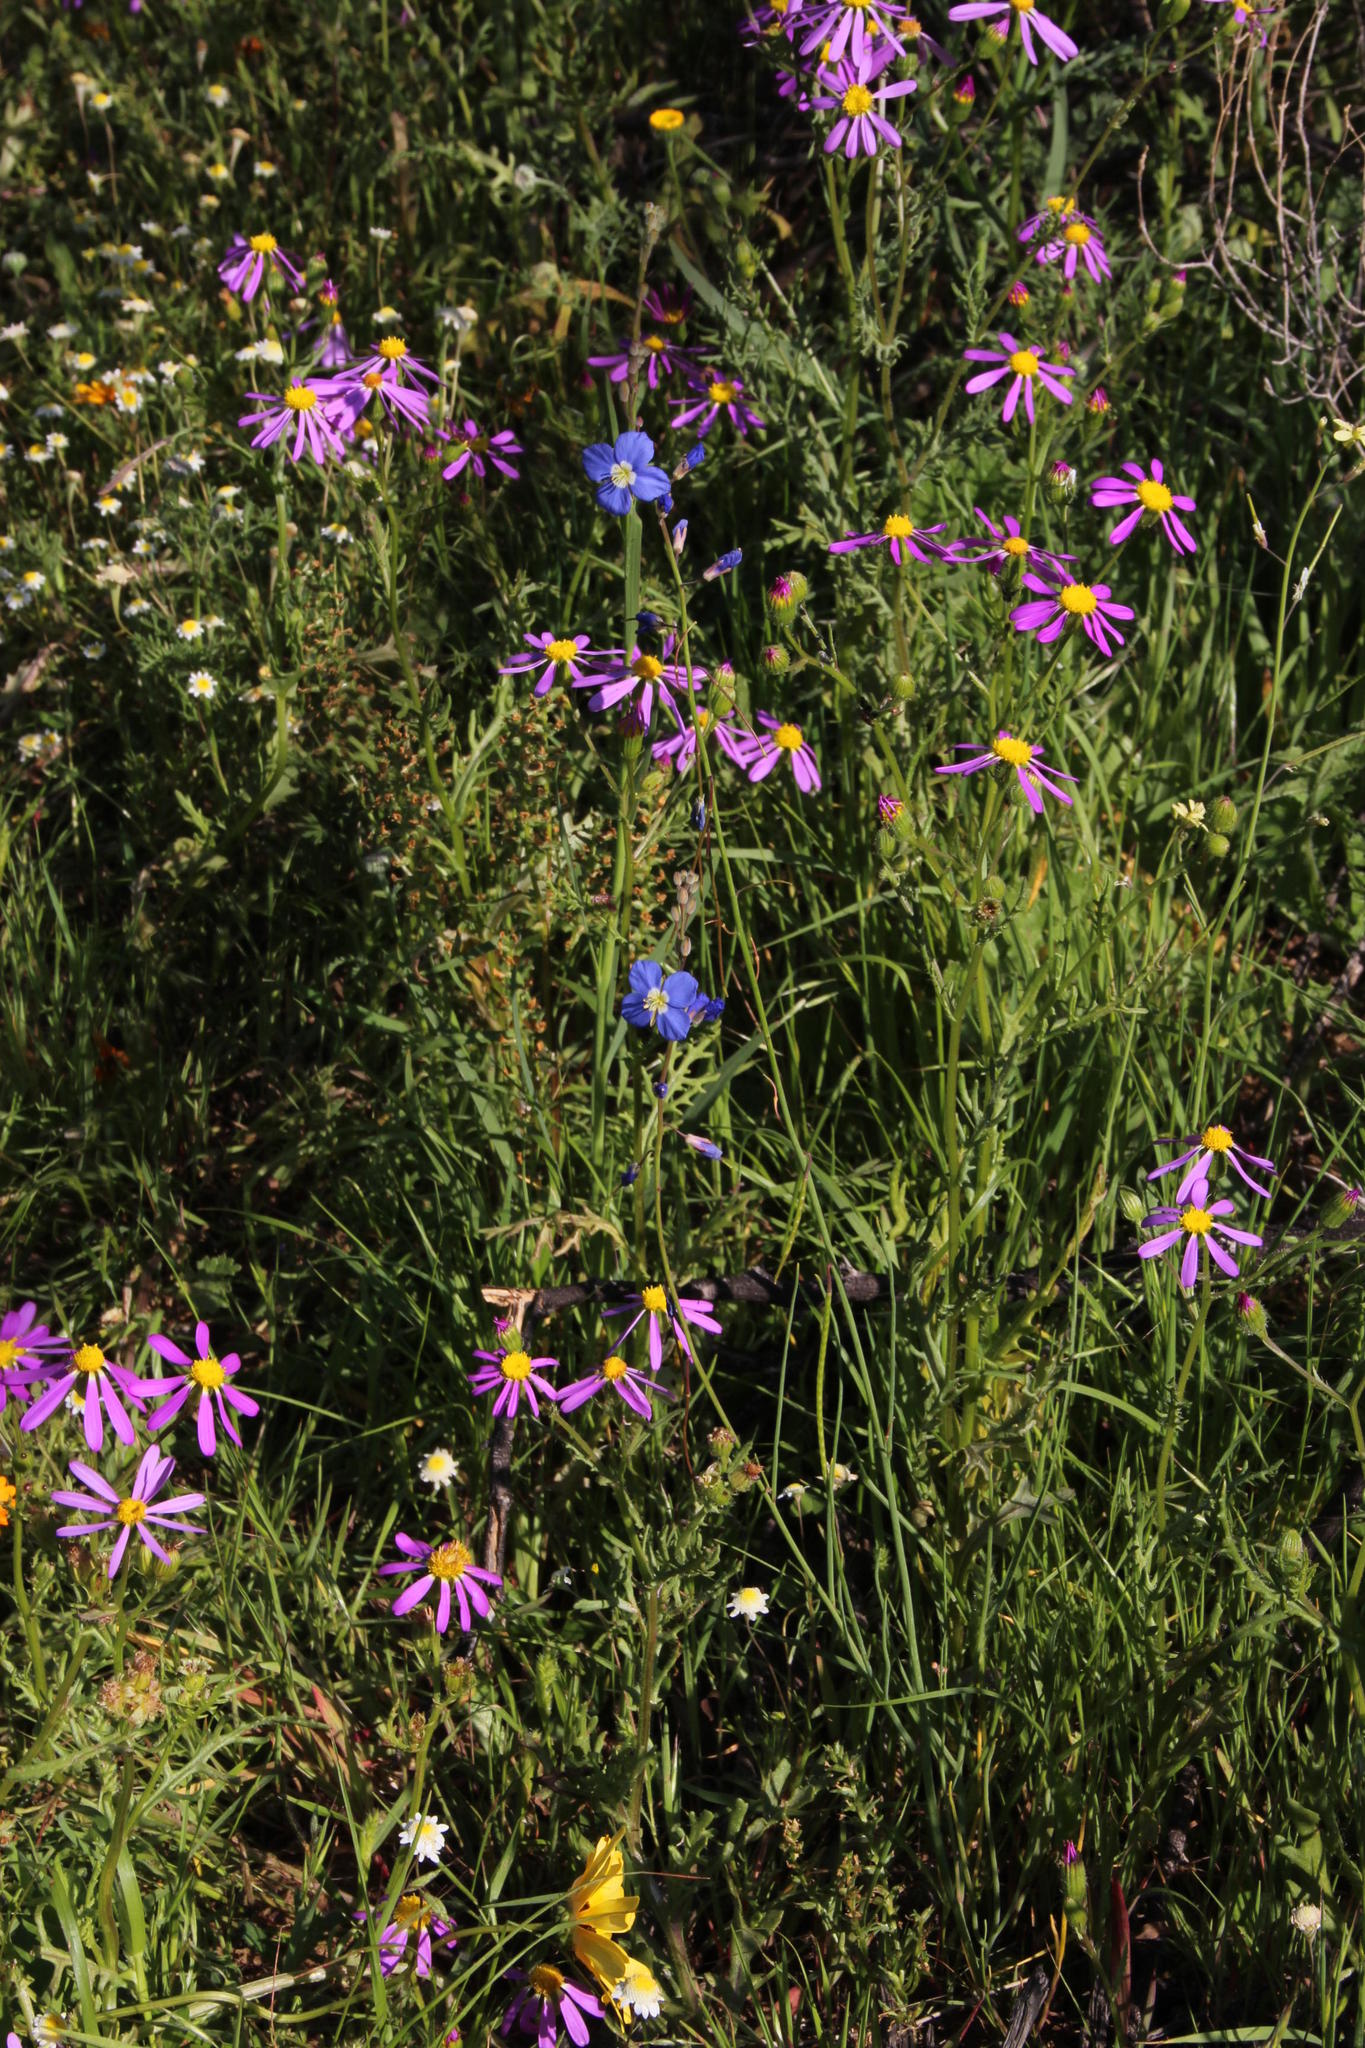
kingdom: Plantae
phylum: Tracheophyta
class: Magnoliopsida
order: Brassicales
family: Brassicaceae
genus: Heliophila
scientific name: Heliophila arenaria
